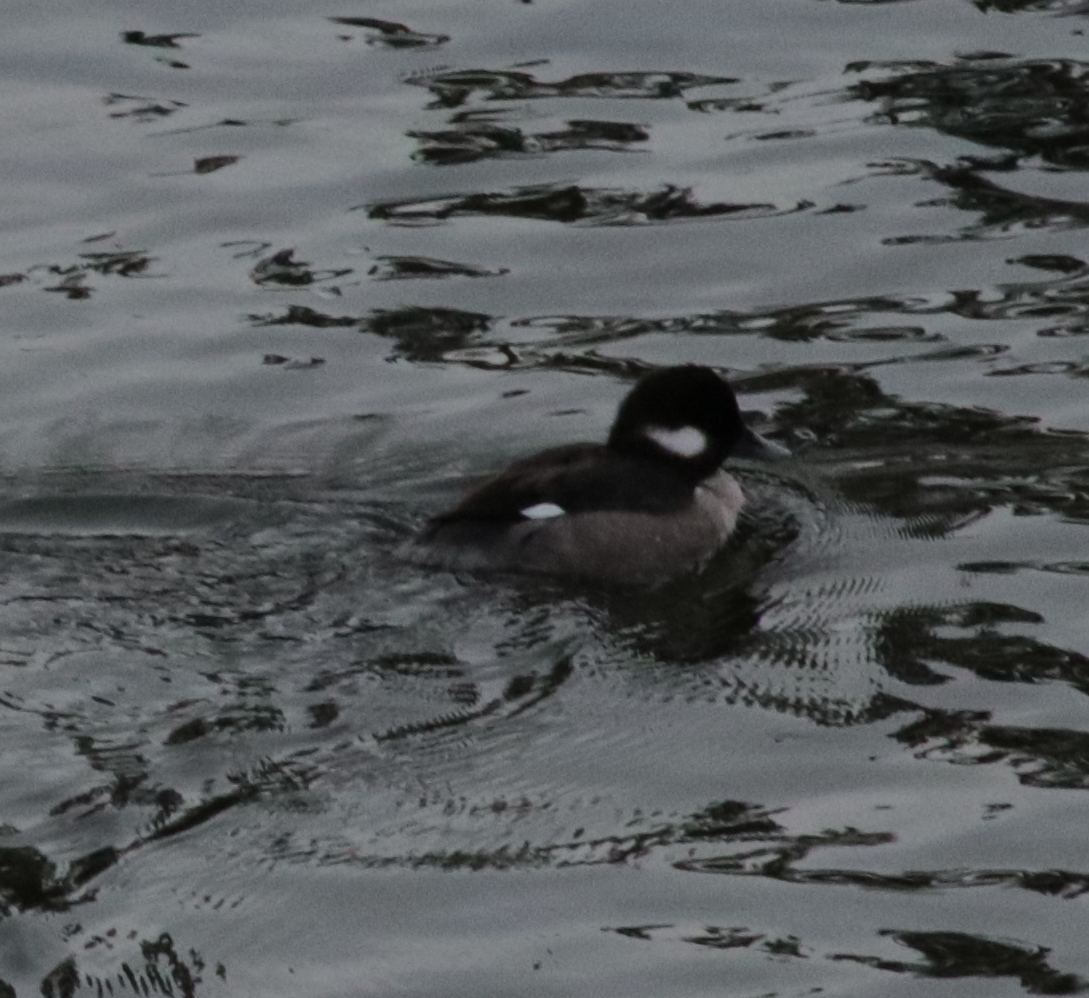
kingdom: Animalia
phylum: Chordata
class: Aves
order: Anseriformes
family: Anatidae
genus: Bucephala
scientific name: Bucephala albeola
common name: Bufflehead
